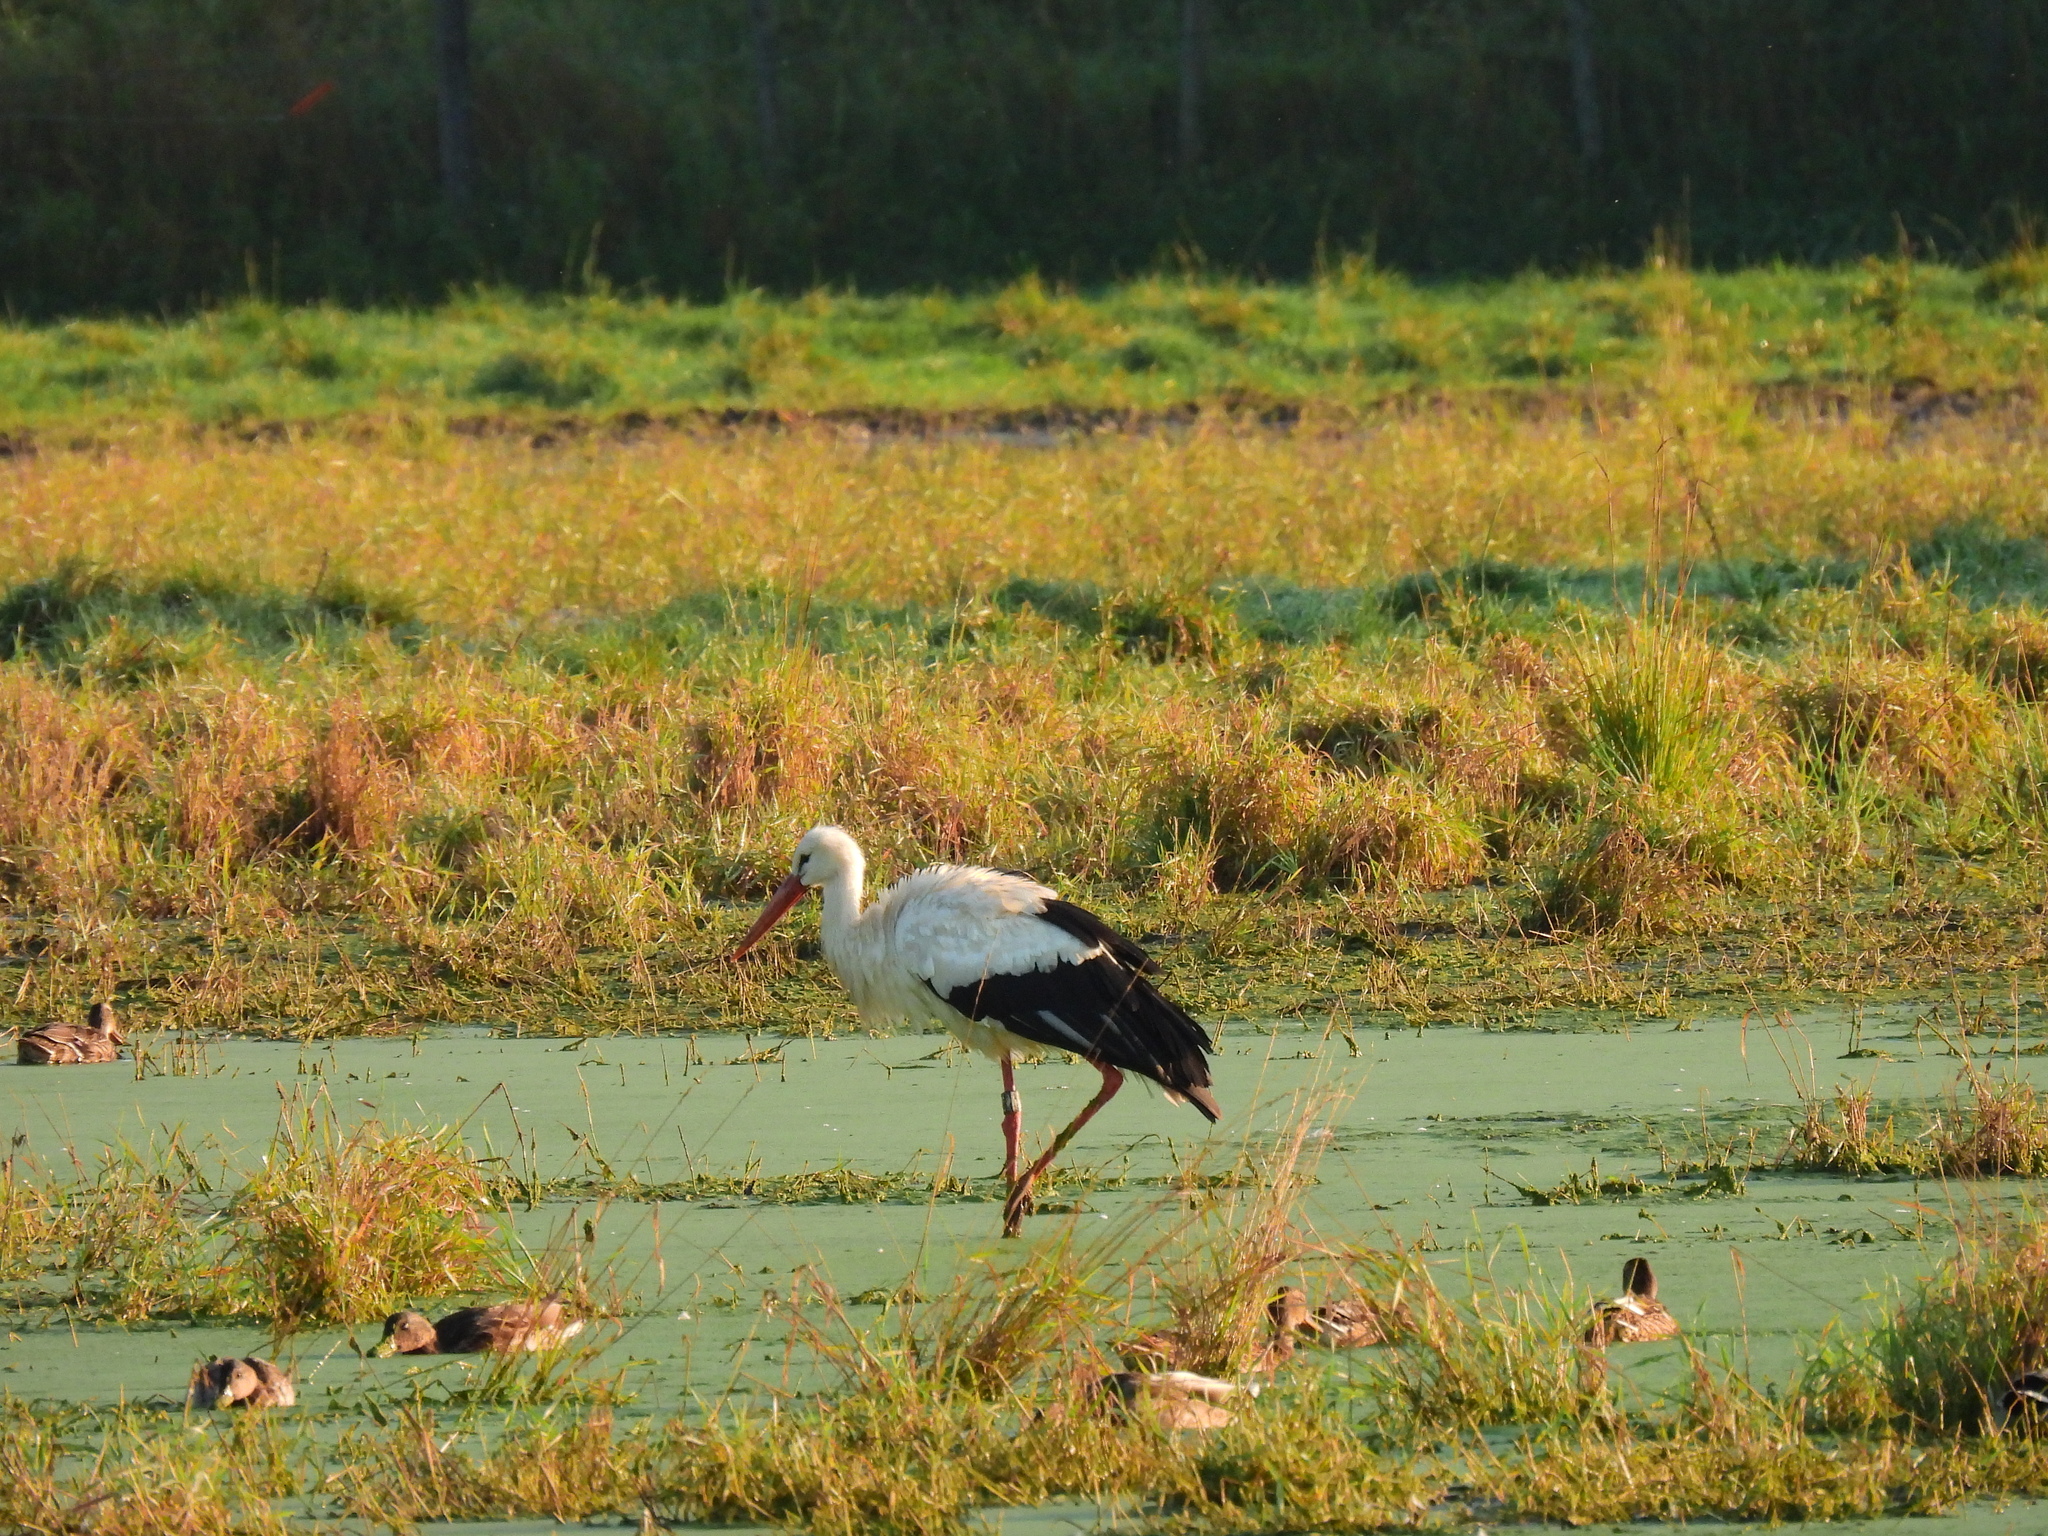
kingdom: Animalia
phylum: Chordata
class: Aves
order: Ciconiiformes
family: Ciconiidae
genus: Ciconia
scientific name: Ciconia ciconia
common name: White stork
